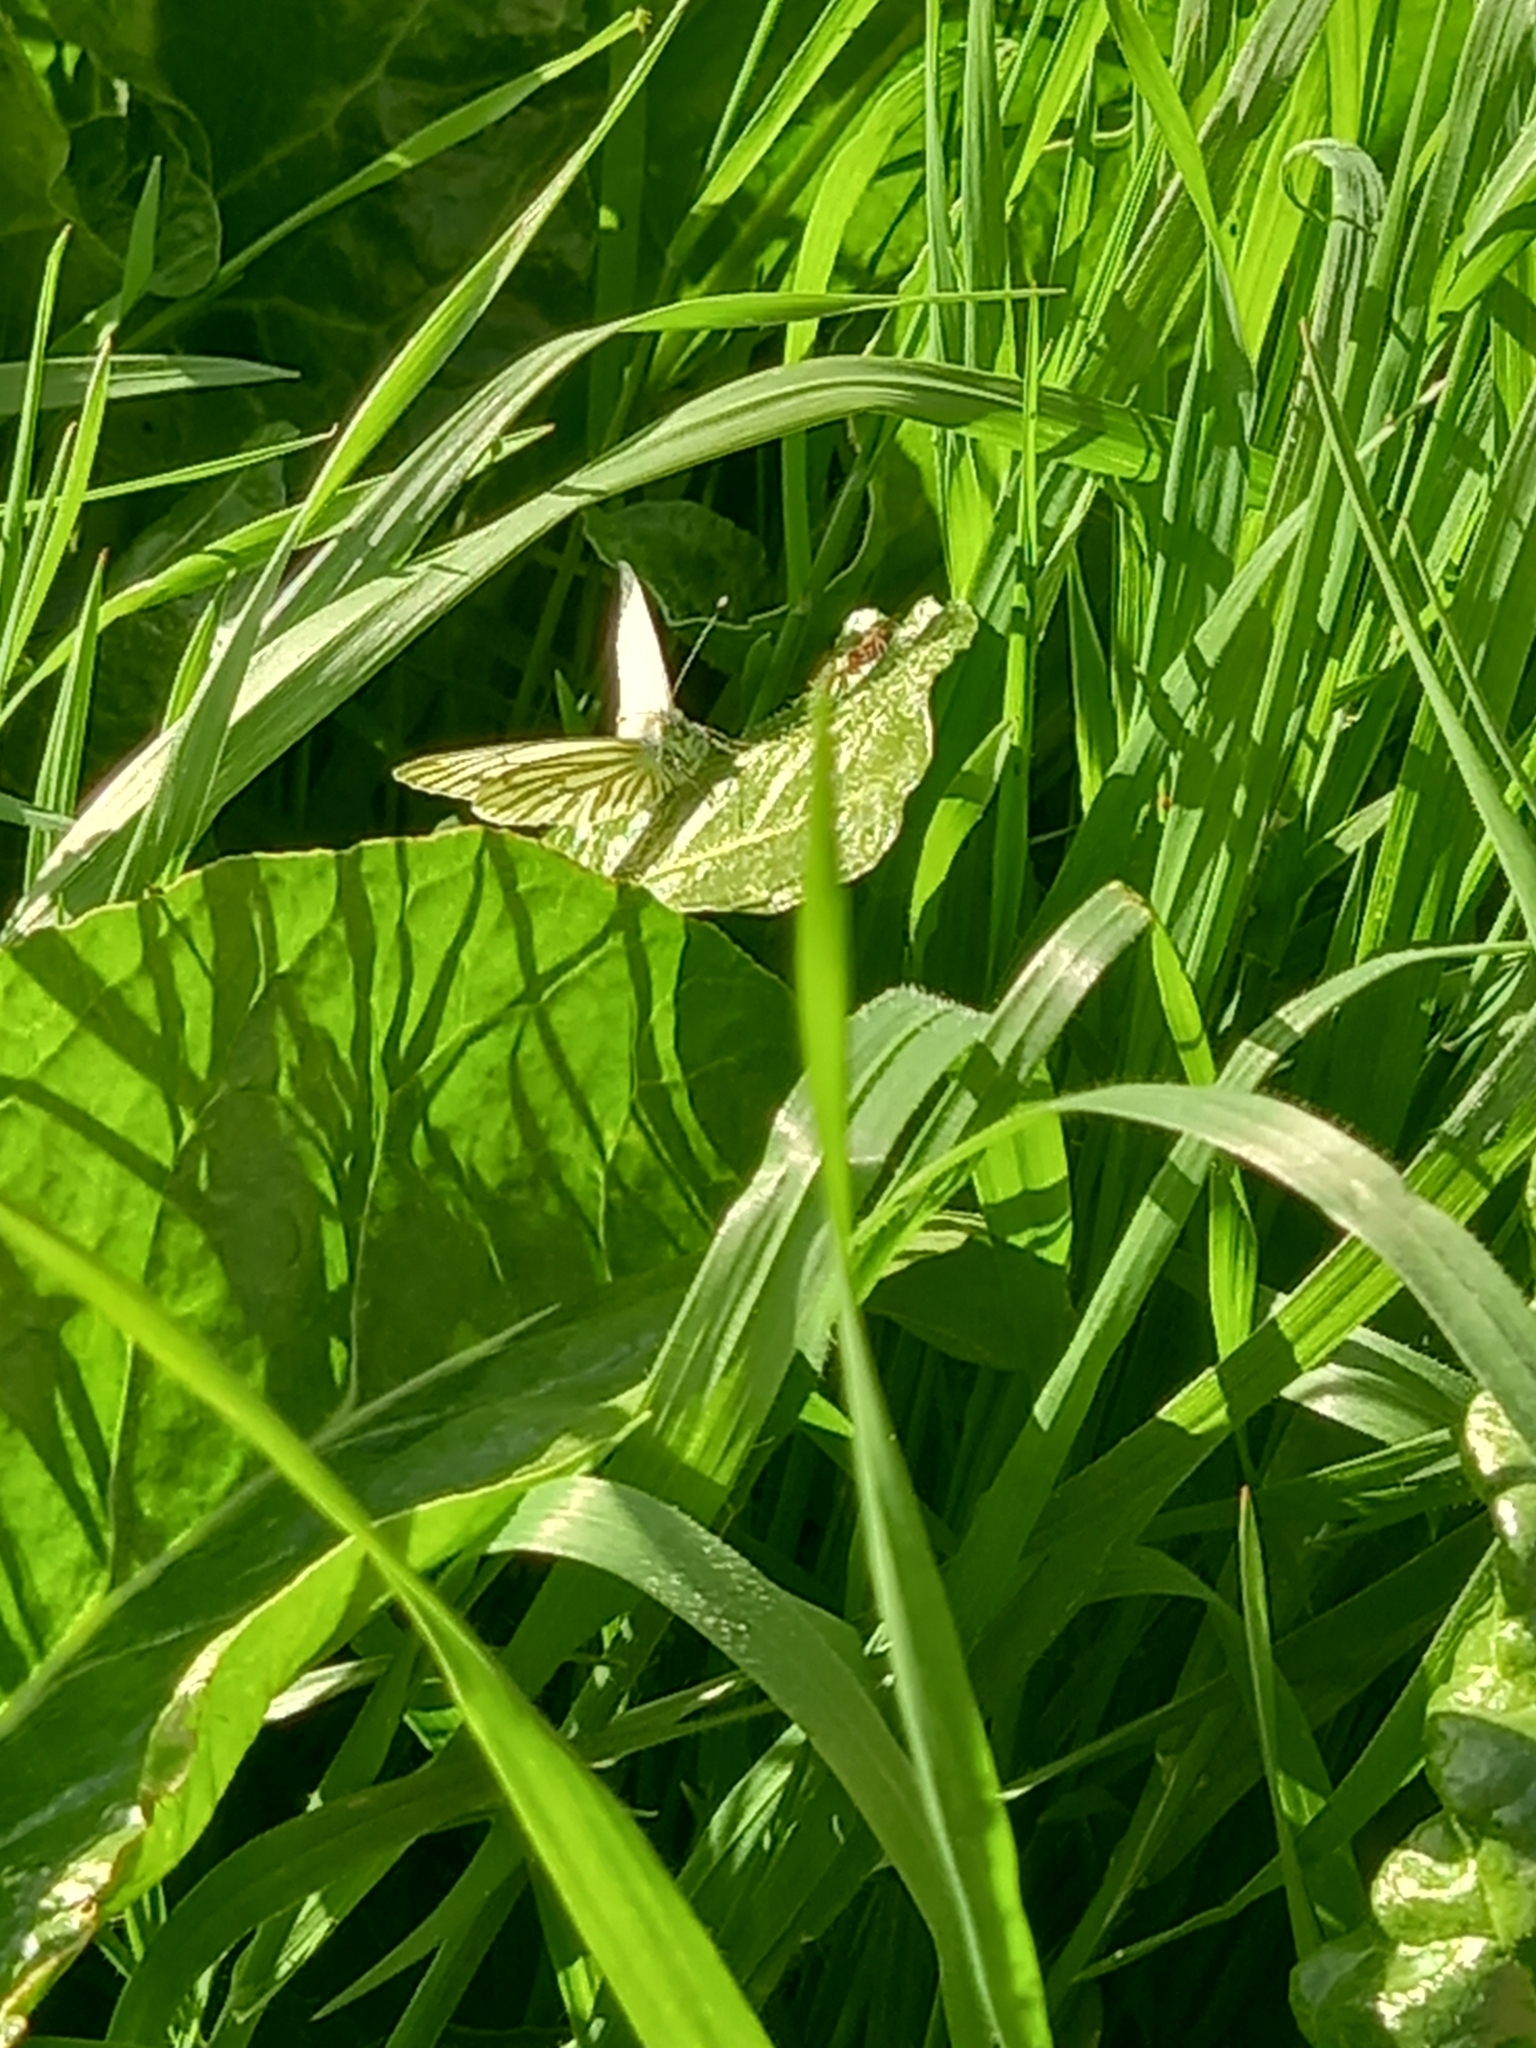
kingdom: Animalia
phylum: Arthropoda
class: Insecta
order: Lepidoptera
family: Pieridae
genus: Pieris
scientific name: Pieris napi
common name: Green-veined white
